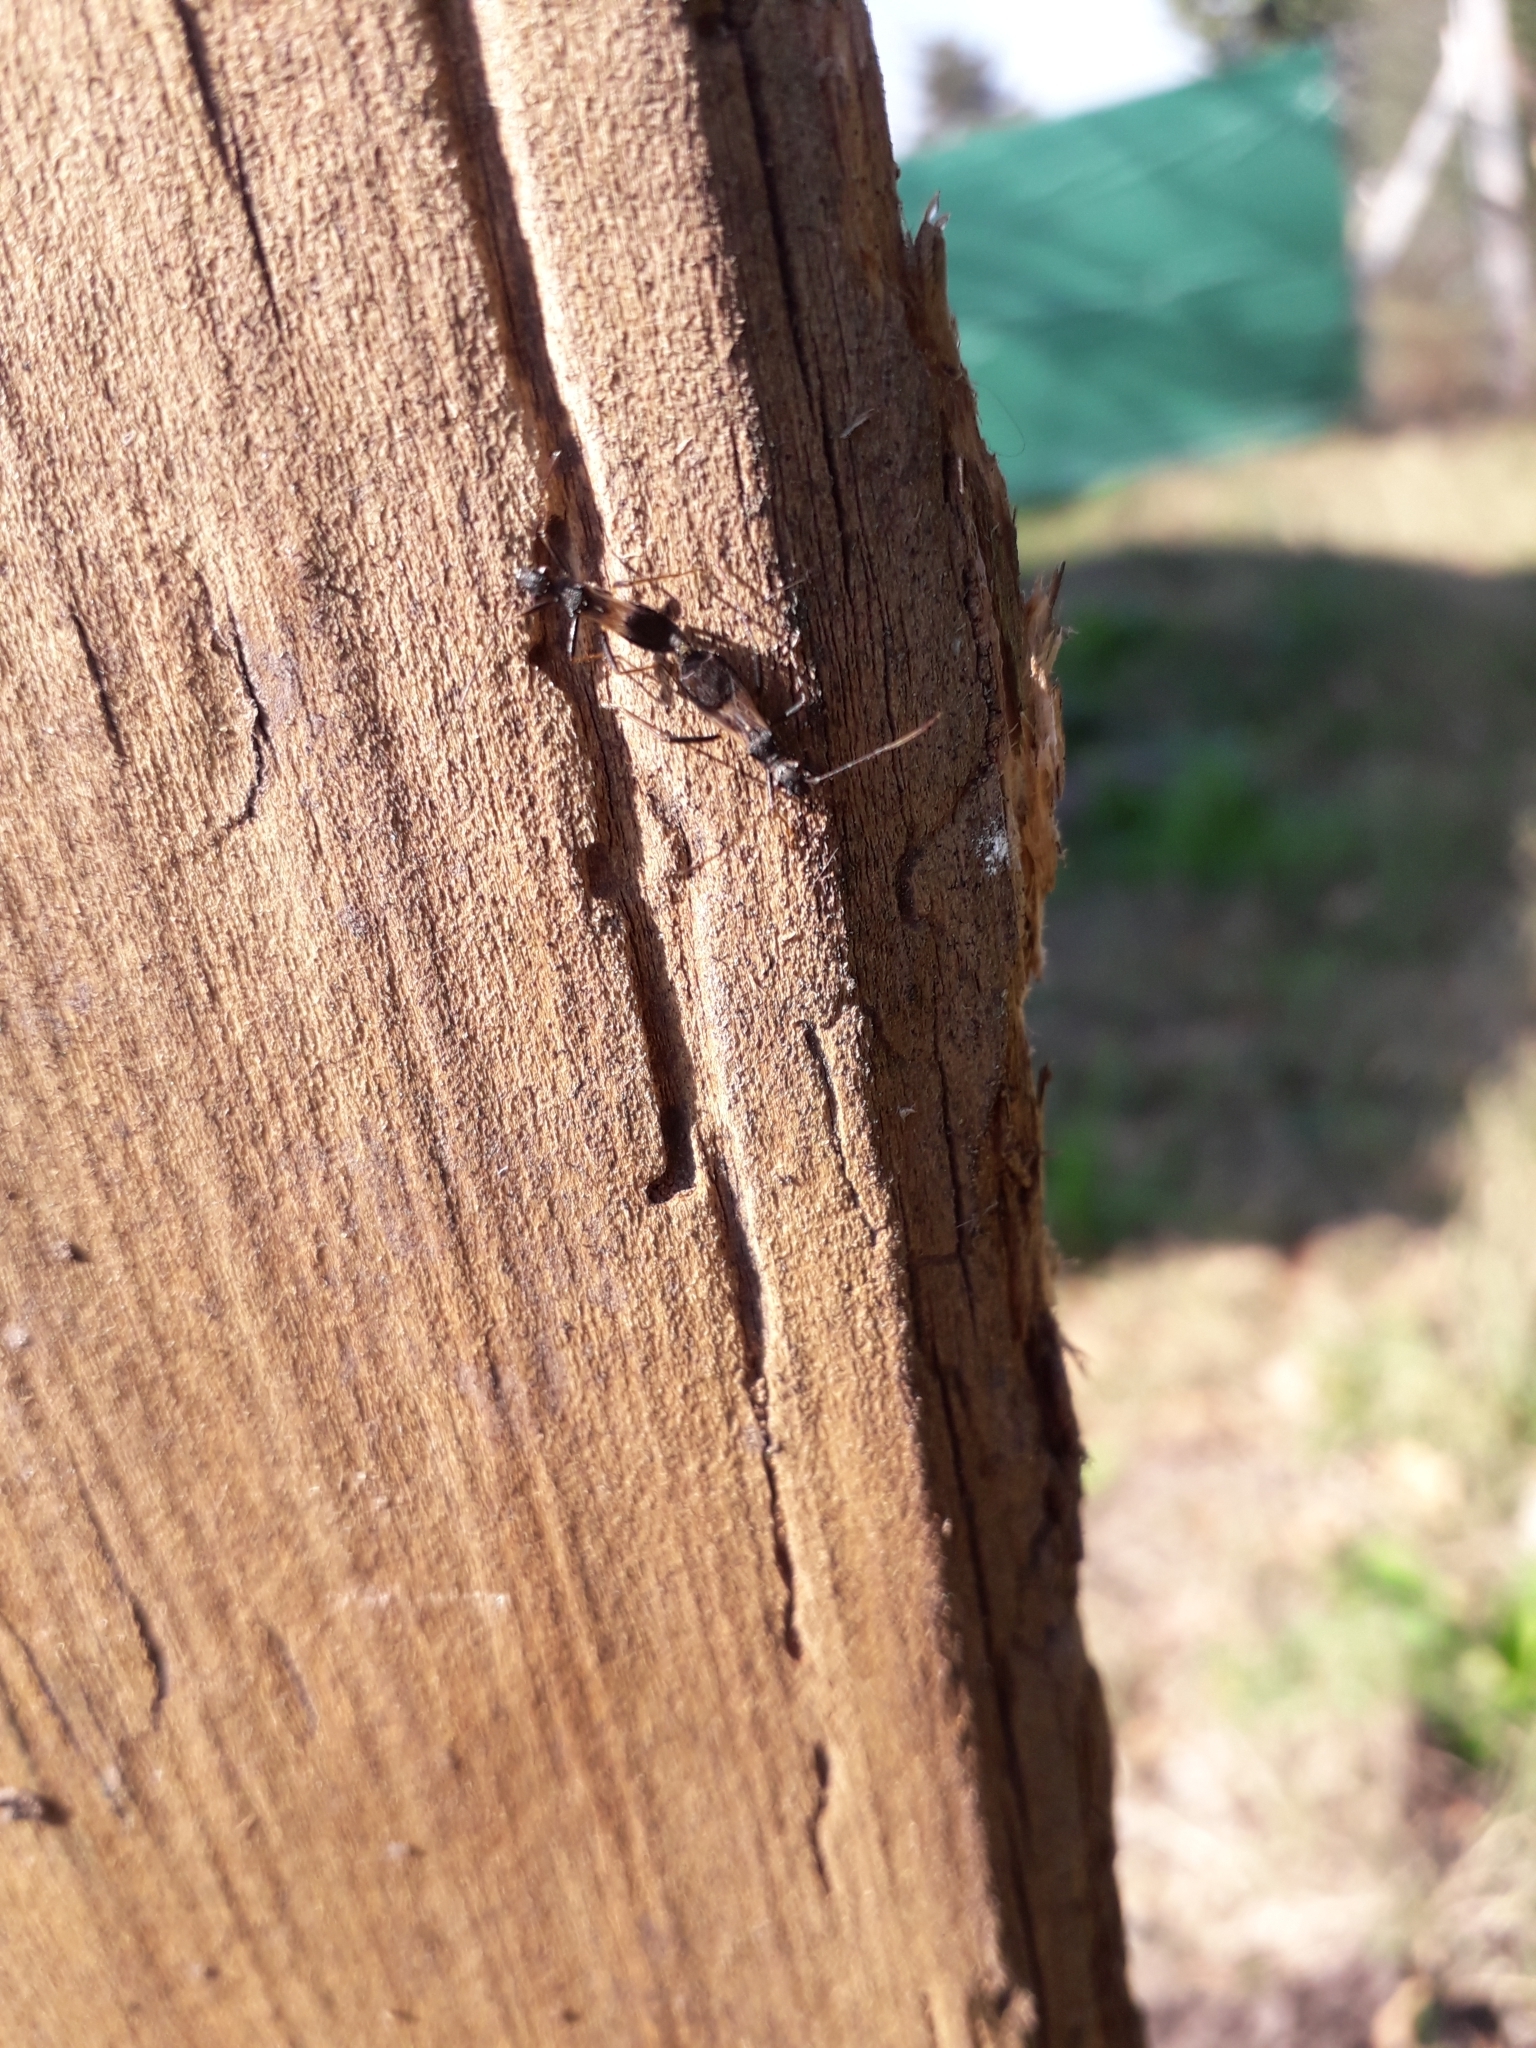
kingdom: Animalia
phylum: Arthropoda
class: Insecta
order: Hemiptera
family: Alydidae
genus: Cydamus
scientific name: Cydamus femoralis
